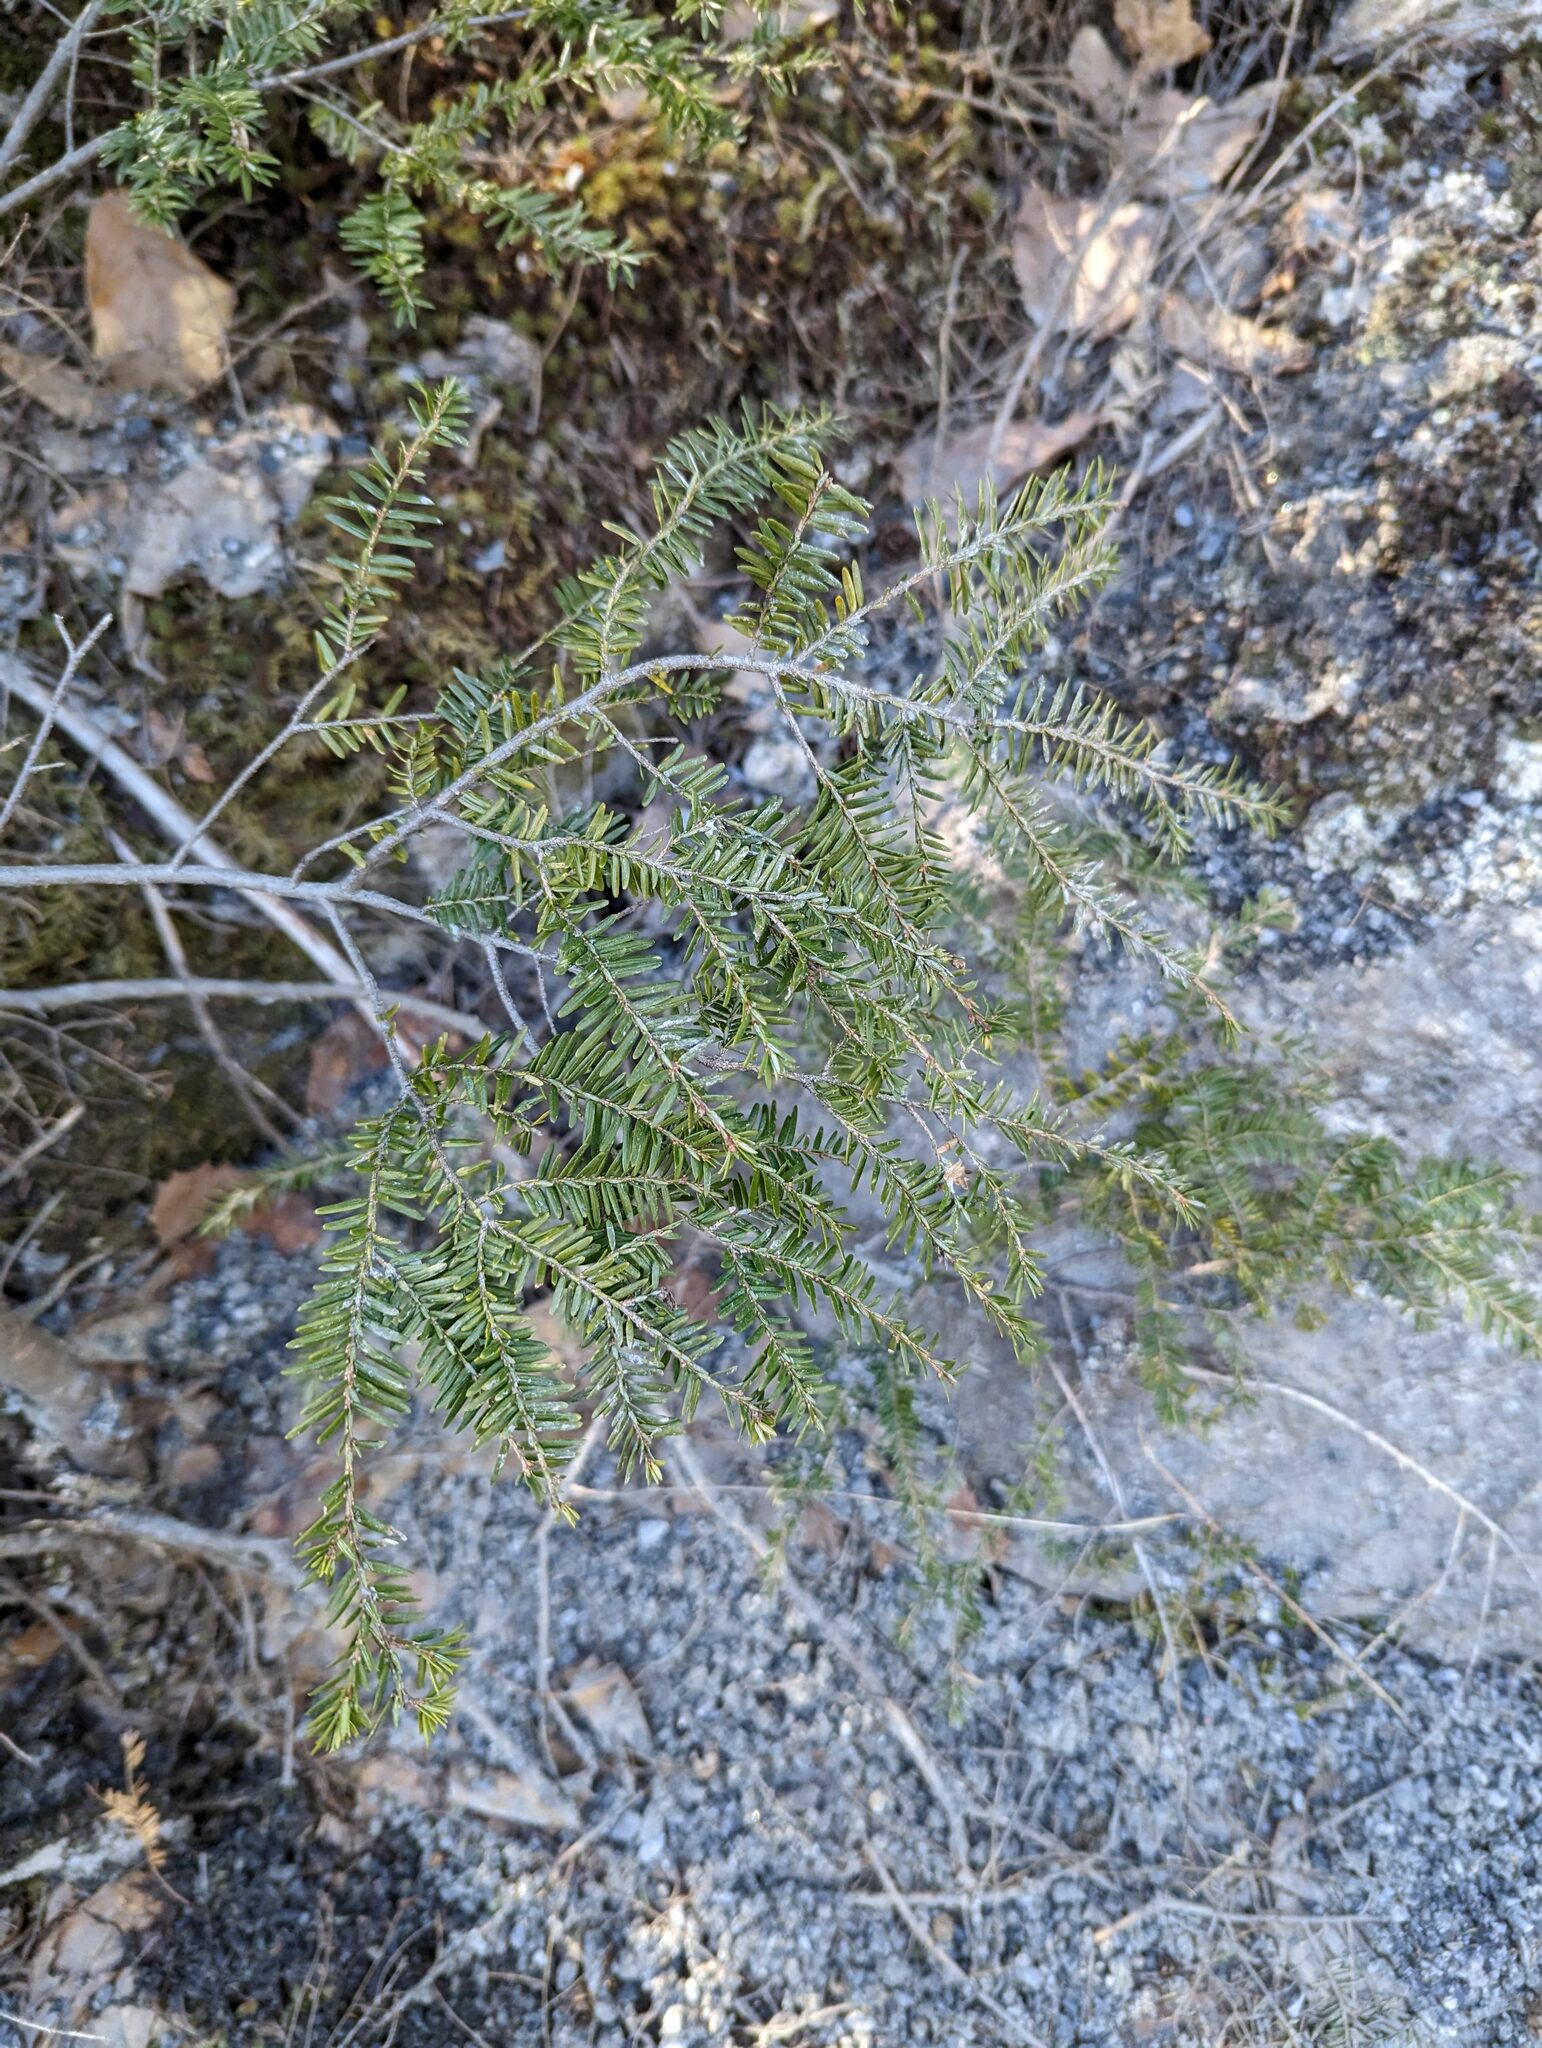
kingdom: Plantae
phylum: Tracheophyta
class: Pinopsida
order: Pinales
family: Pinaceae
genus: Tsuga
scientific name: Tsuga canadensis
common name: Eastern hemlock
